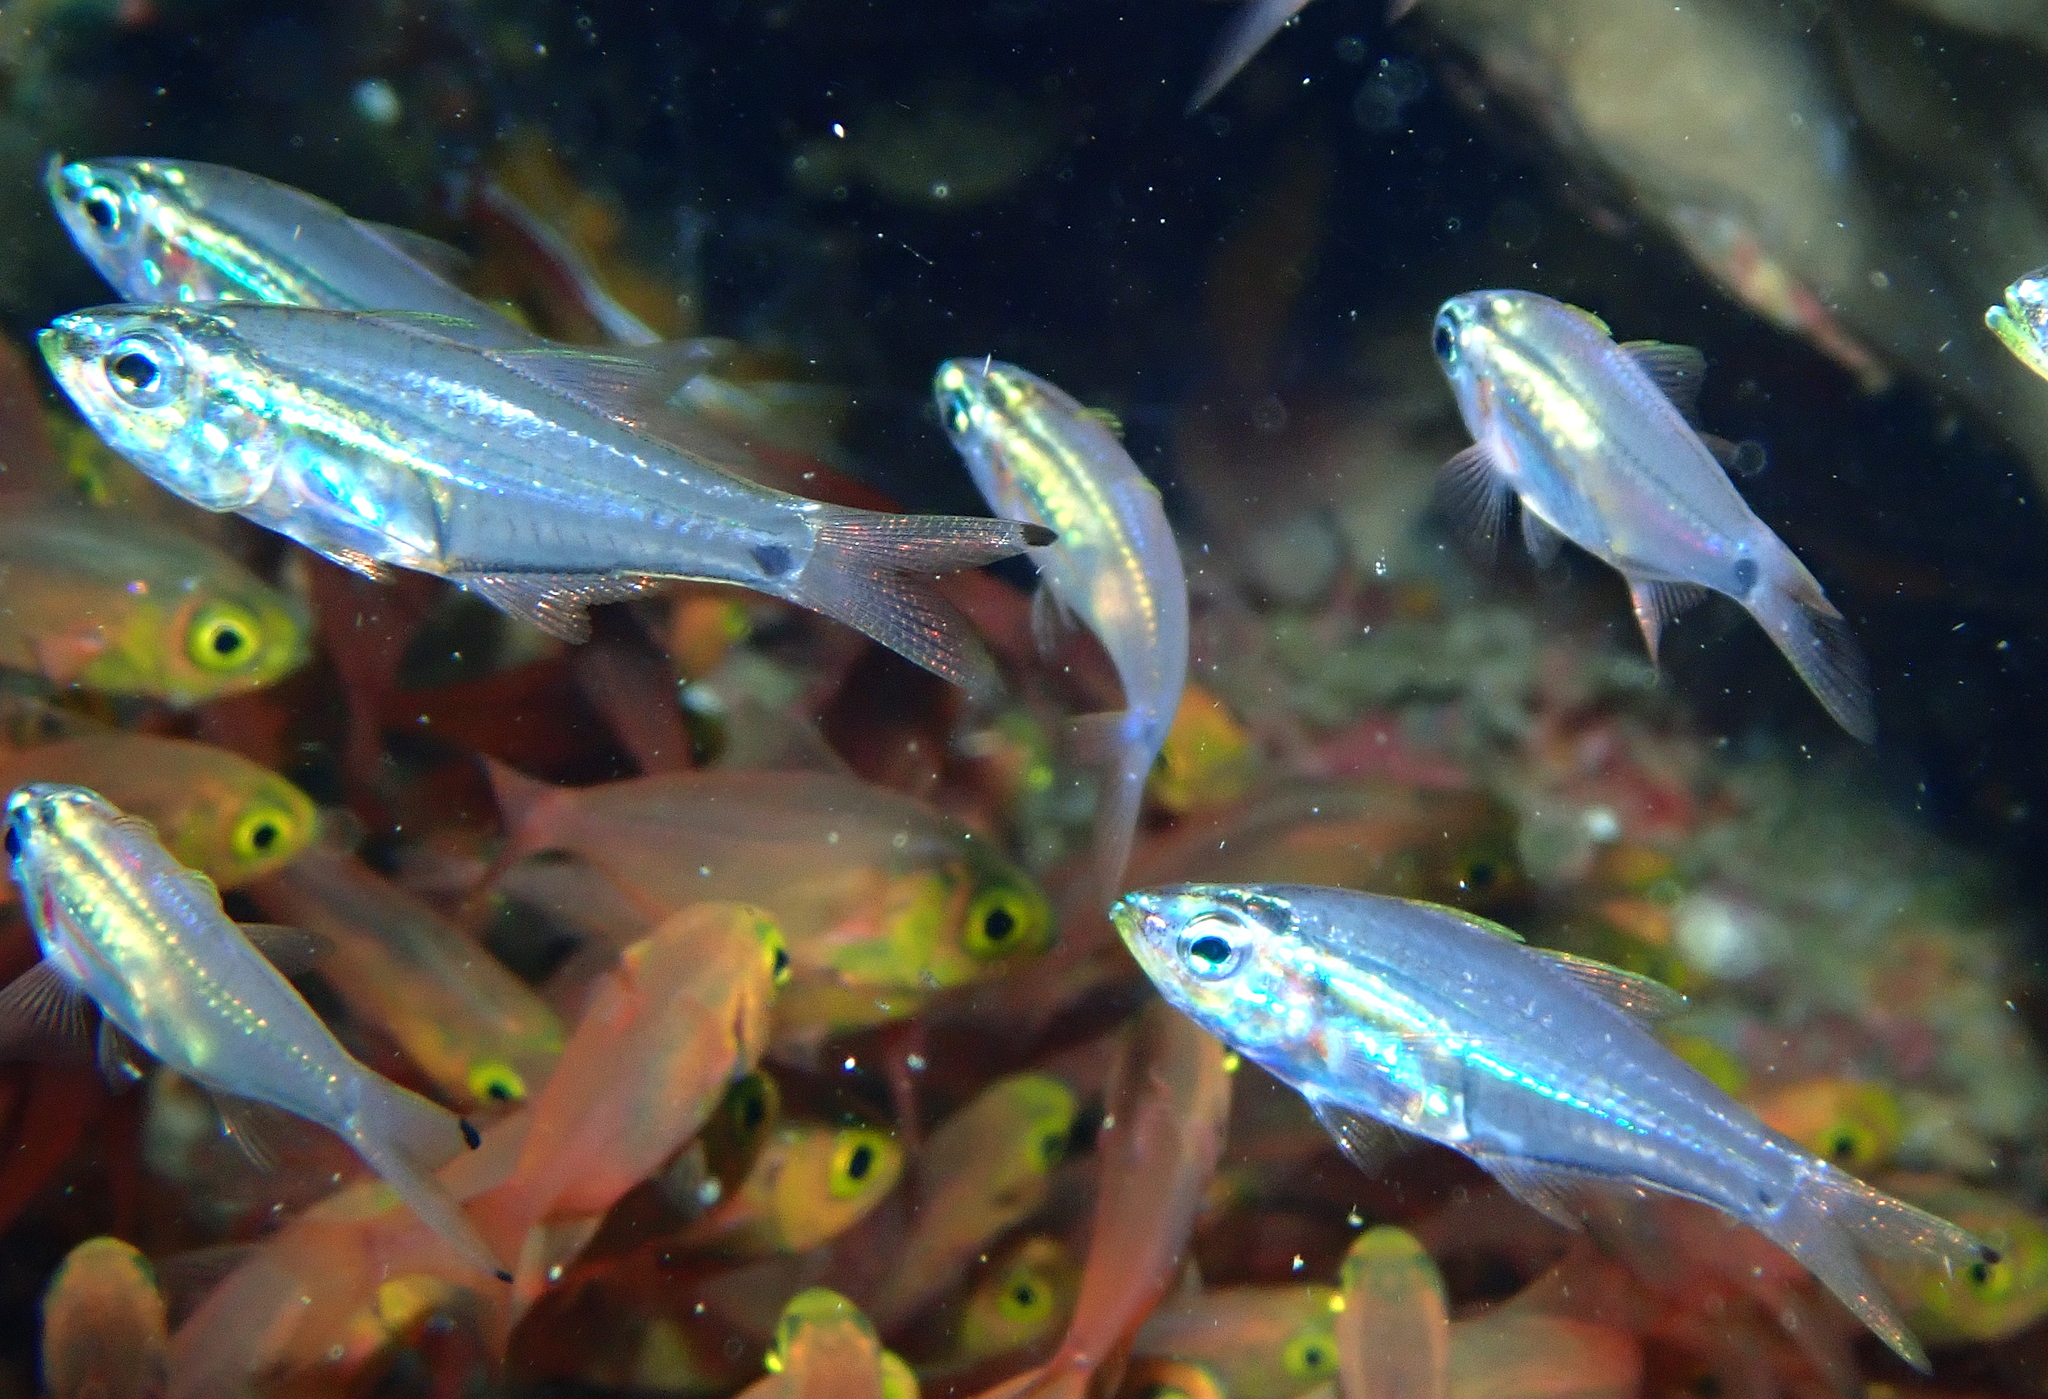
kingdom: Animalia
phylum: Chordata
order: Perciformes
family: Apogonidae
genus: Rhabdamia
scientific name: Rhabdamia novaluna
